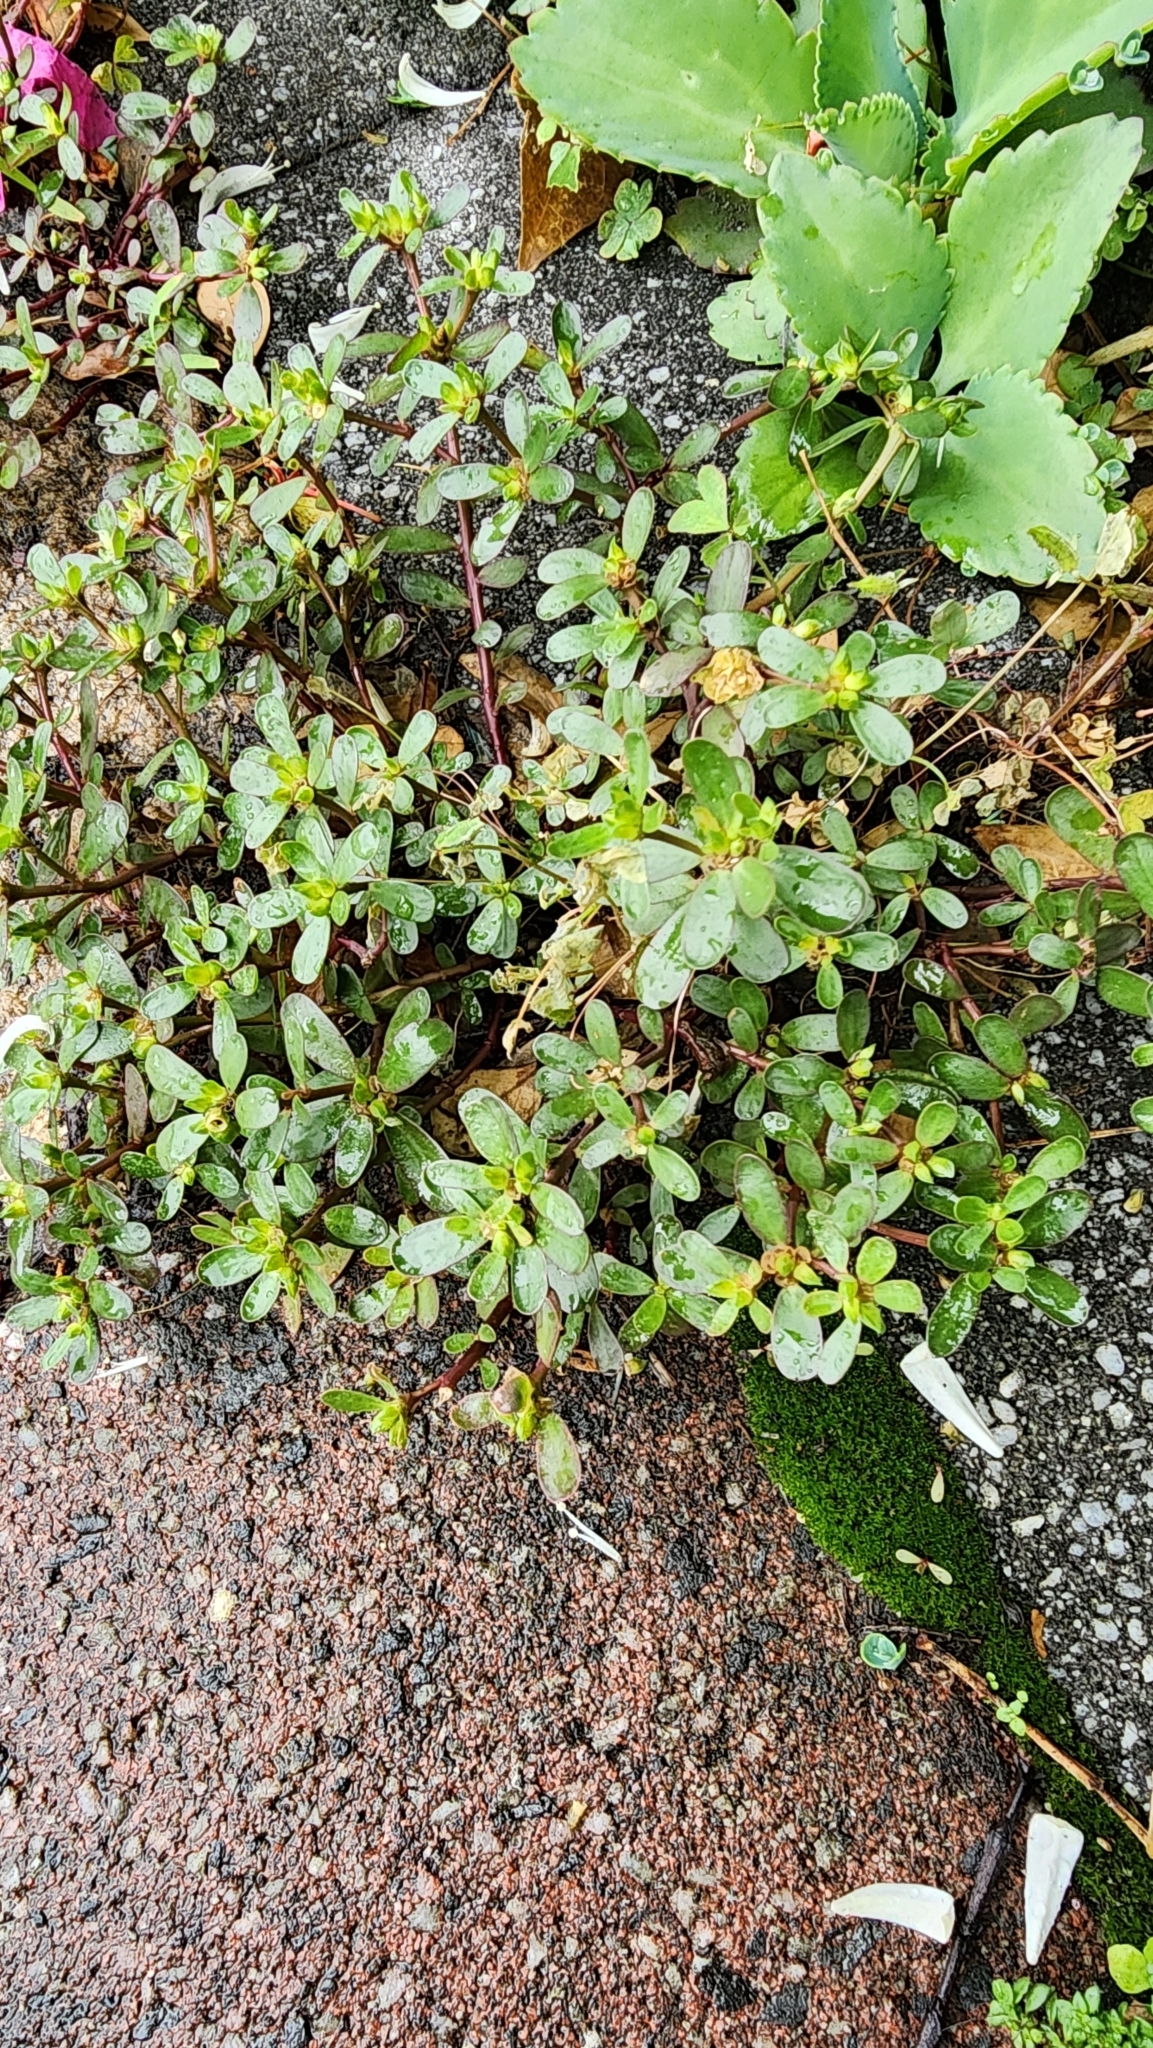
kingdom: Plantae
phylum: Tracheophyta
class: Magnoliopsida
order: Caryophyllales
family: Portulacaceae
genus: Portulaca
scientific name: Portulaca oleracea
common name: Common purslane
